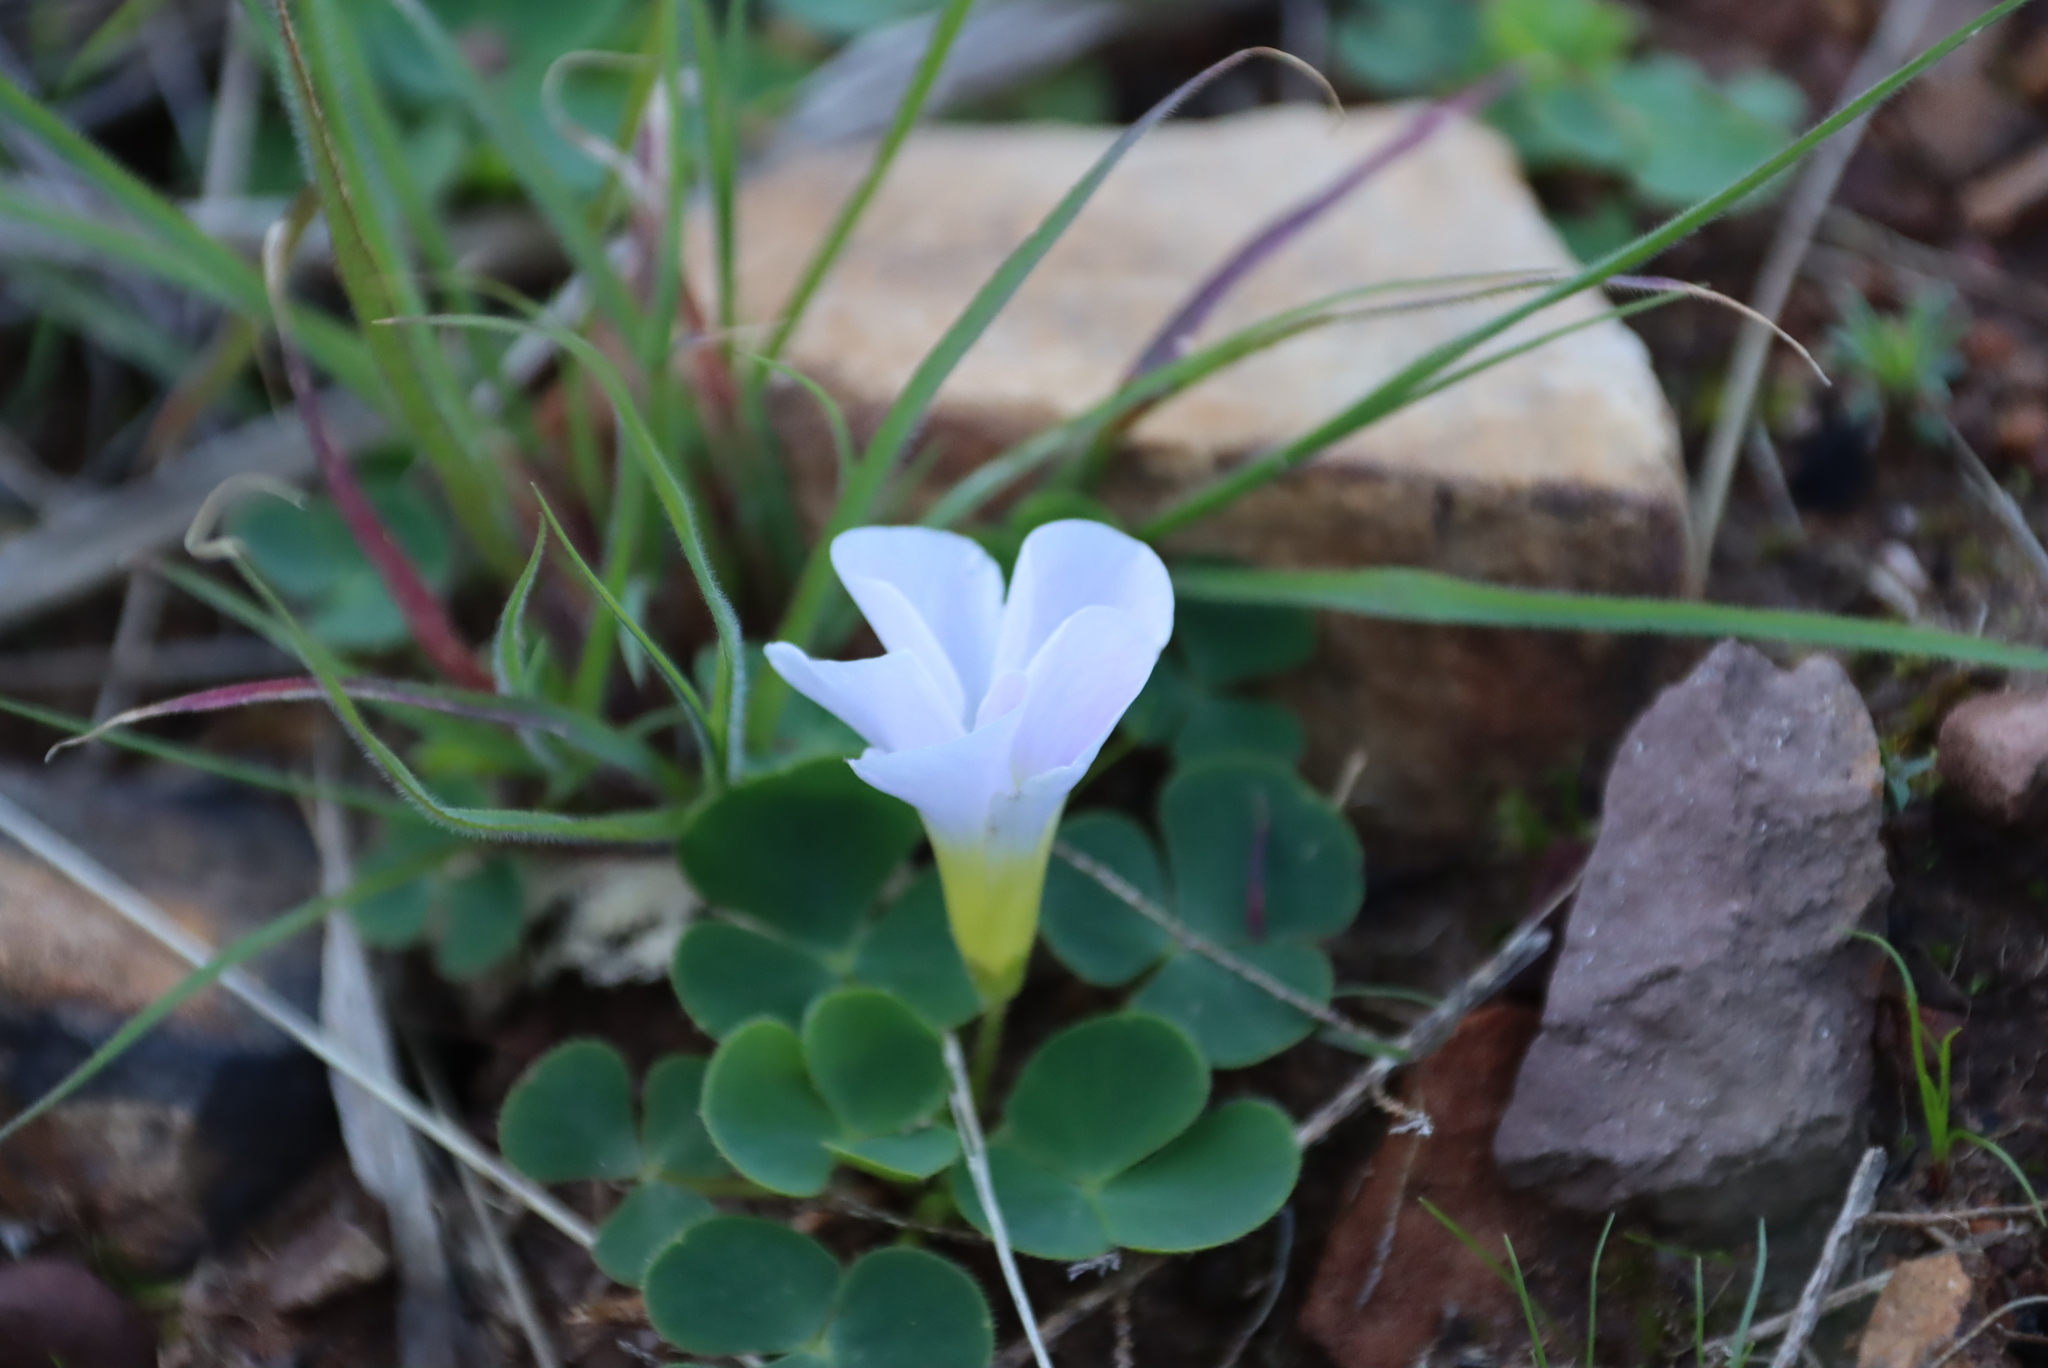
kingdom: Plantae
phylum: Tracheophyta
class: Magnoliopsida
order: Oxalidales
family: Oxalidaceae
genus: Oxalis
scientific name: Oxalis purpurea
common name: Purple woodsorrel
